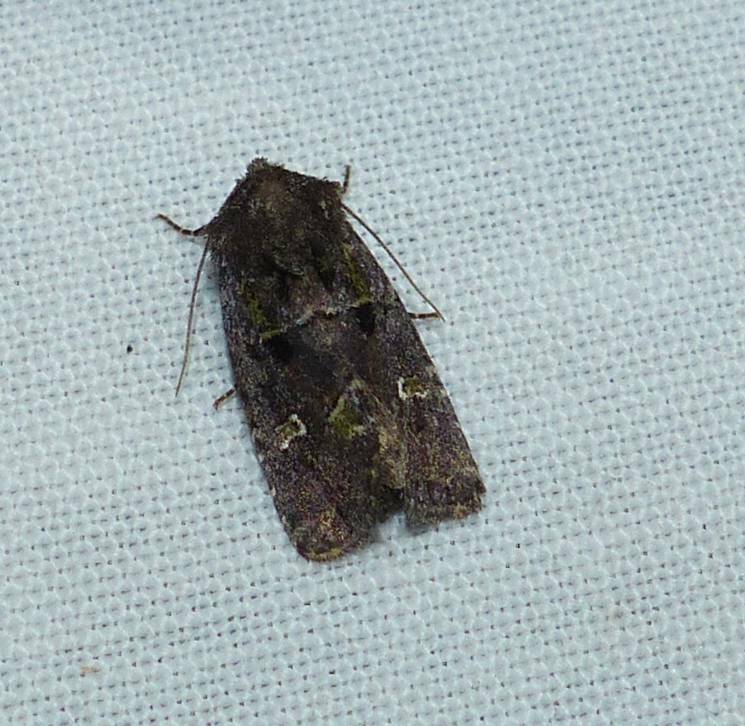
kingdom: Animalia
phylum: Arthropoda
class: Insecta
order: Lepidoptera
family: Noctuidae
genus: Lacinipolia
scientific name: Lacinipolia renigera
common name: Kidney-spotted minor
